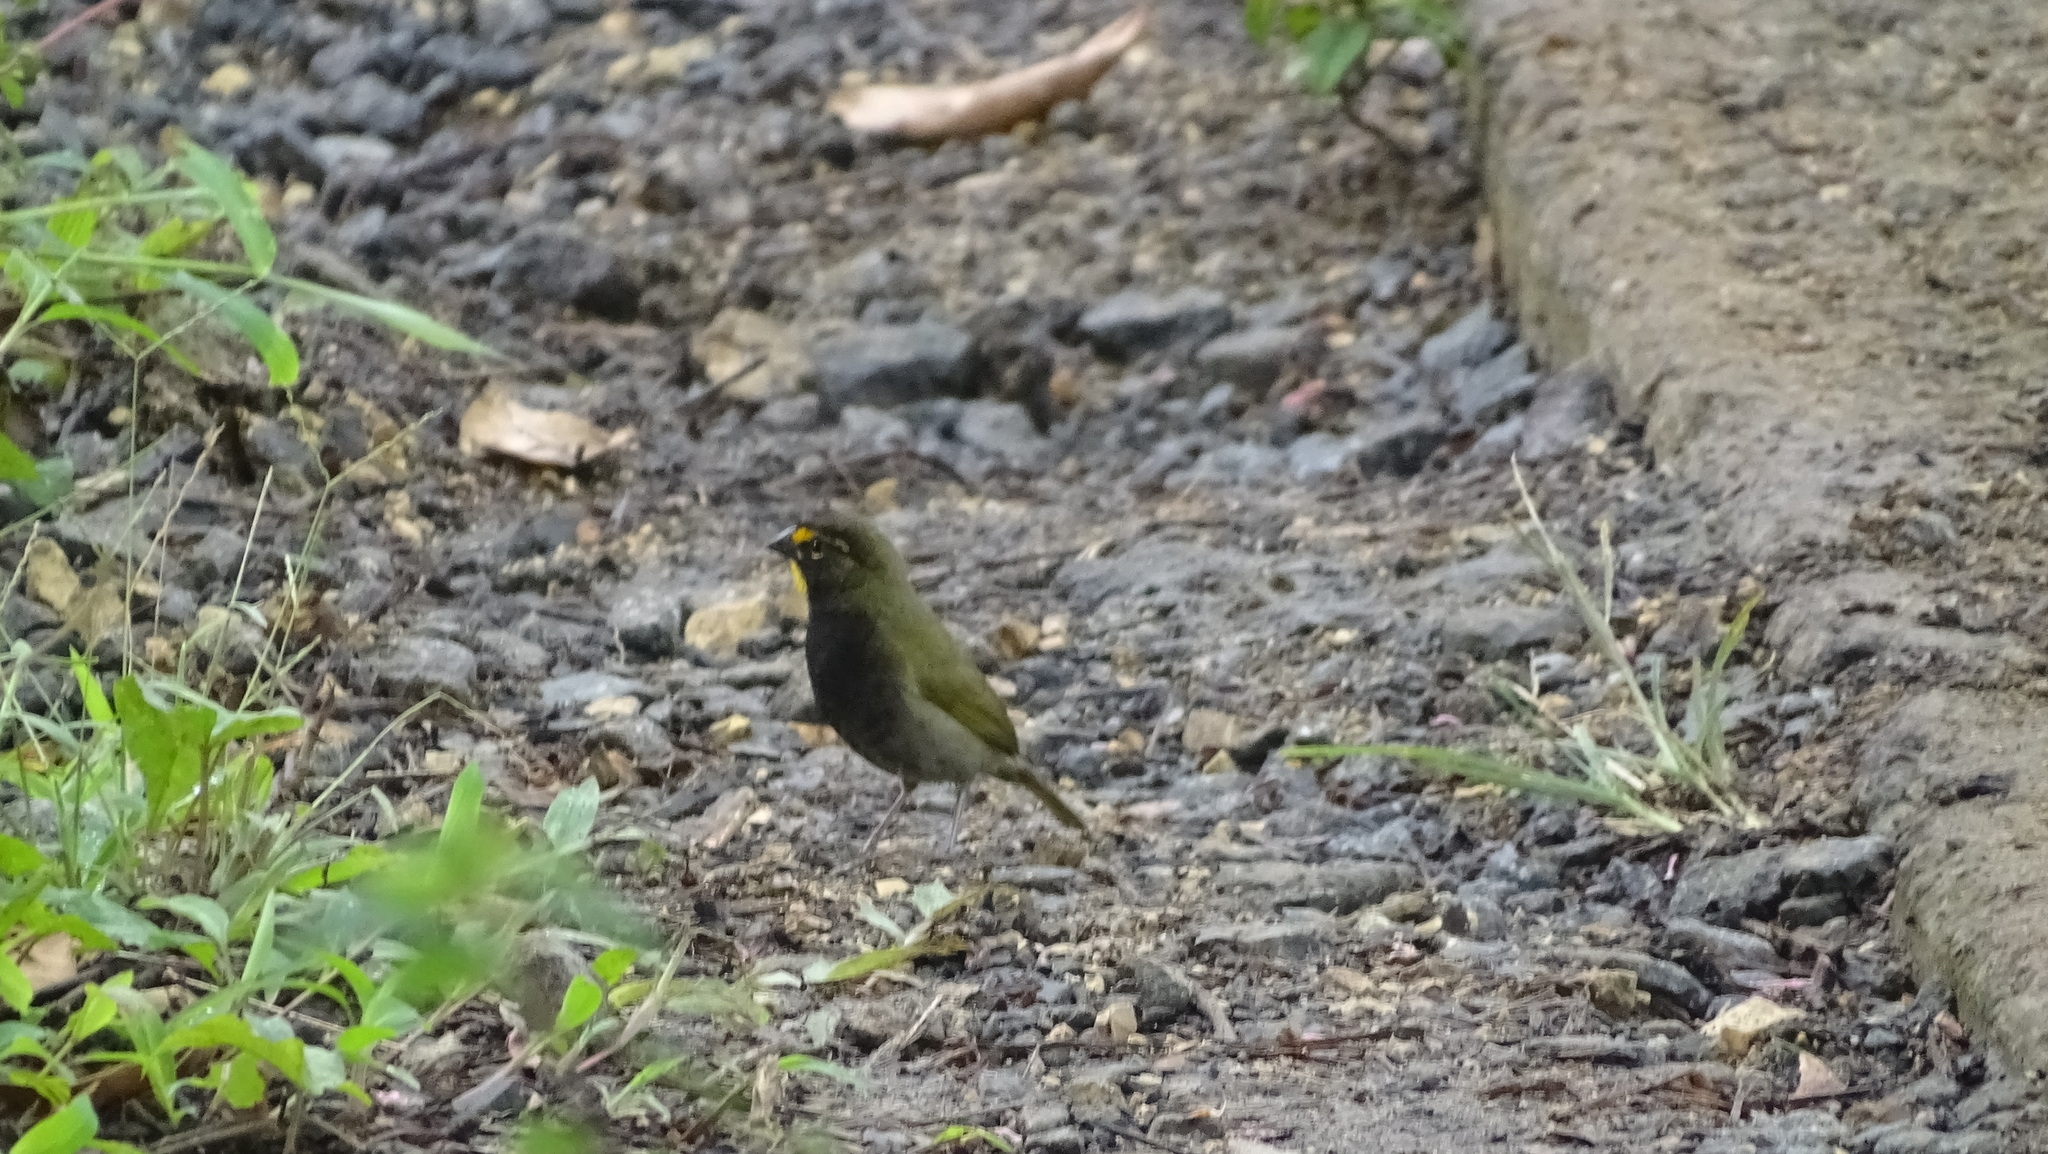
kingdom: Animalia
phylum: Chordata
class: Aves
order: Passeriformes
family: Thraupidae
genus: Tiaris
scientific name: Tiaris olivaceus
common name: Yellow-faced grassquit
